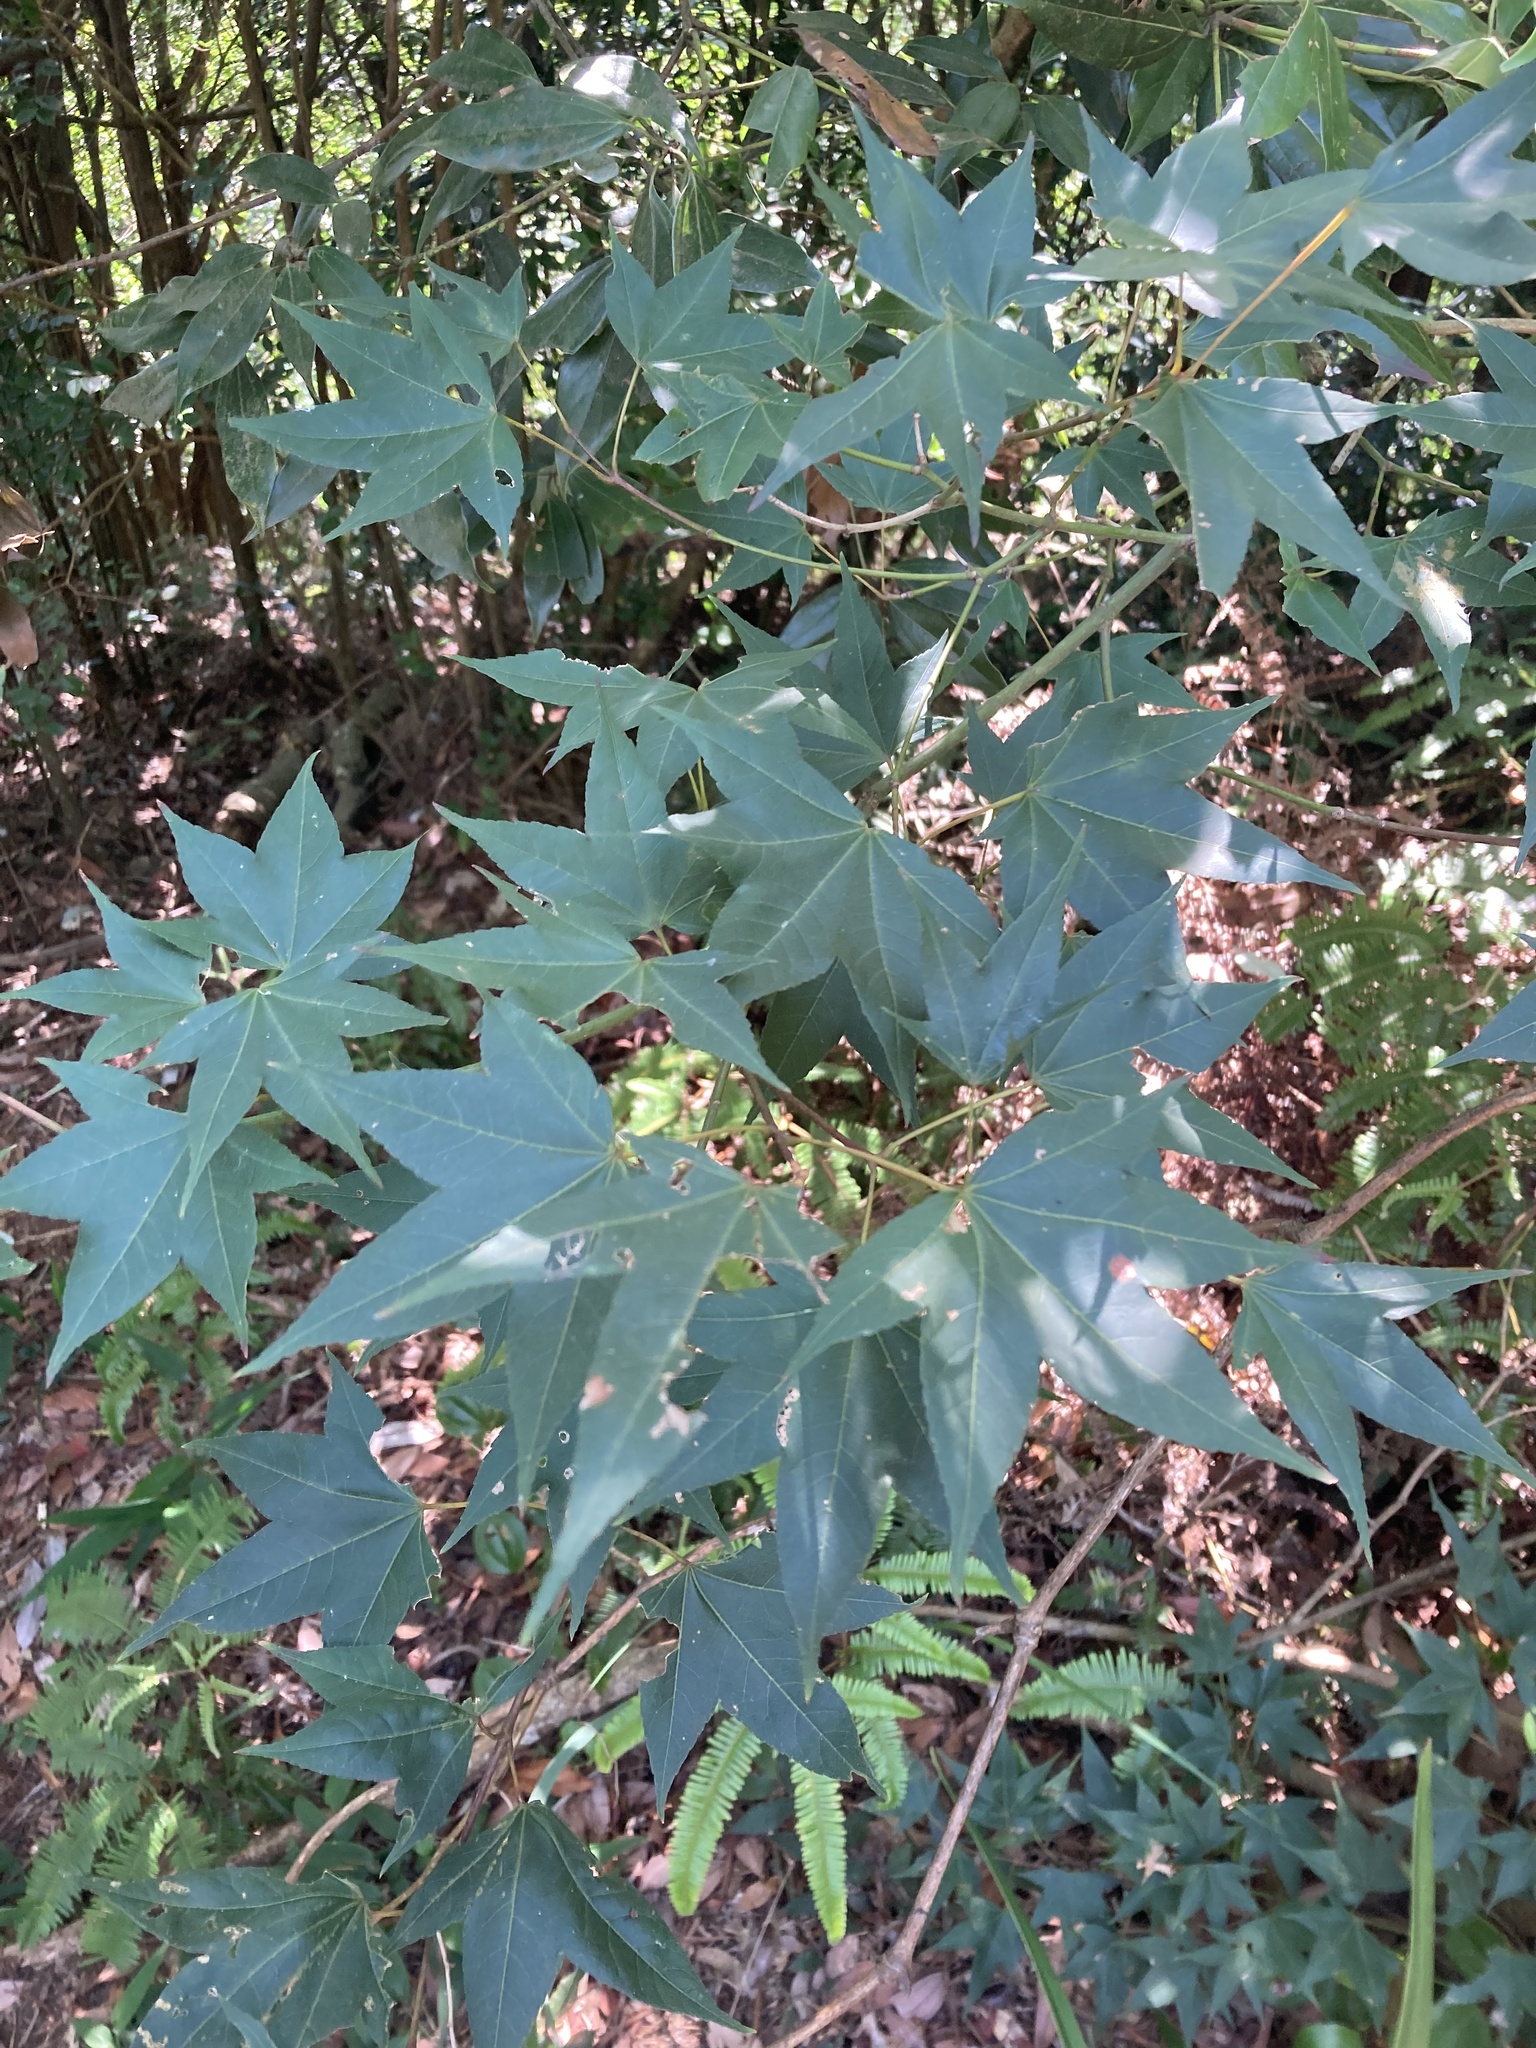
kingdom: Plantae
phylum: Tracheophyta
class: Magnoliopsida
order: Sapindales
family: Sapindaceae
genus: Acer
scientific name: Acer serrulatum
